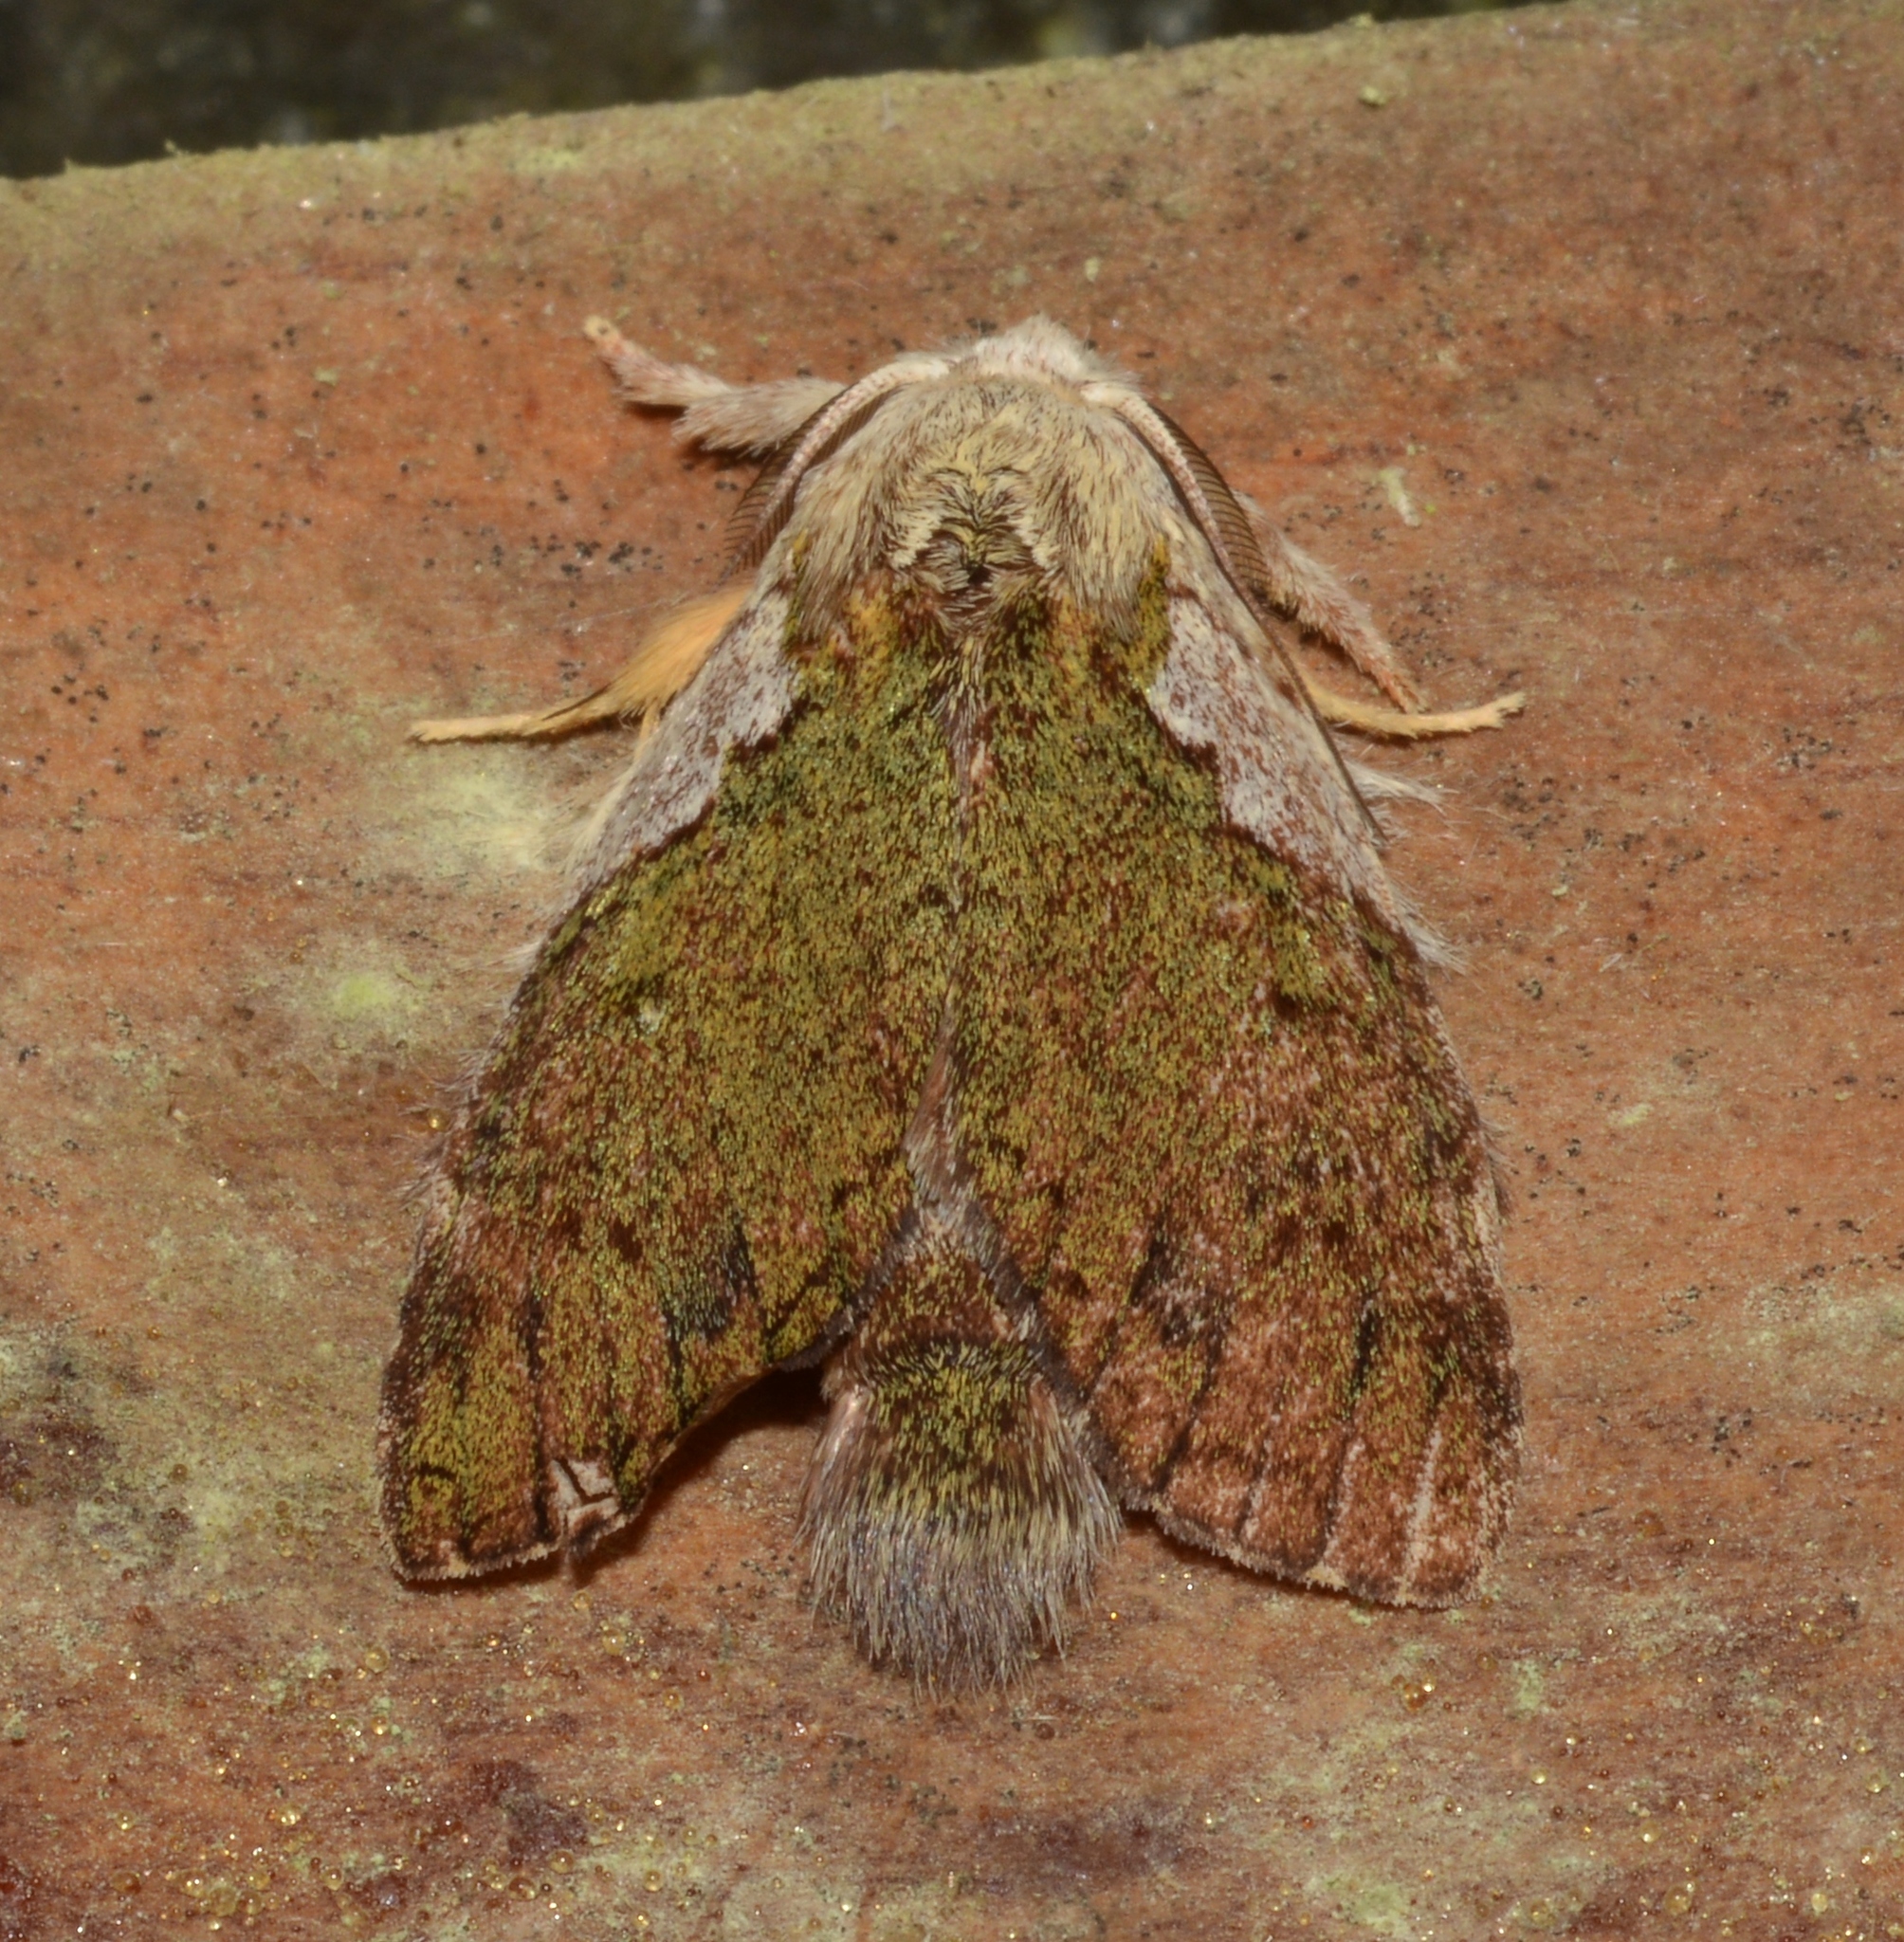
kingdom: Animalia
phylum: Arthropoda
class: Insecta
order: Lepidoptera
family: Notodontidae
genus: Farigia
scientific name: Farigia foliata
